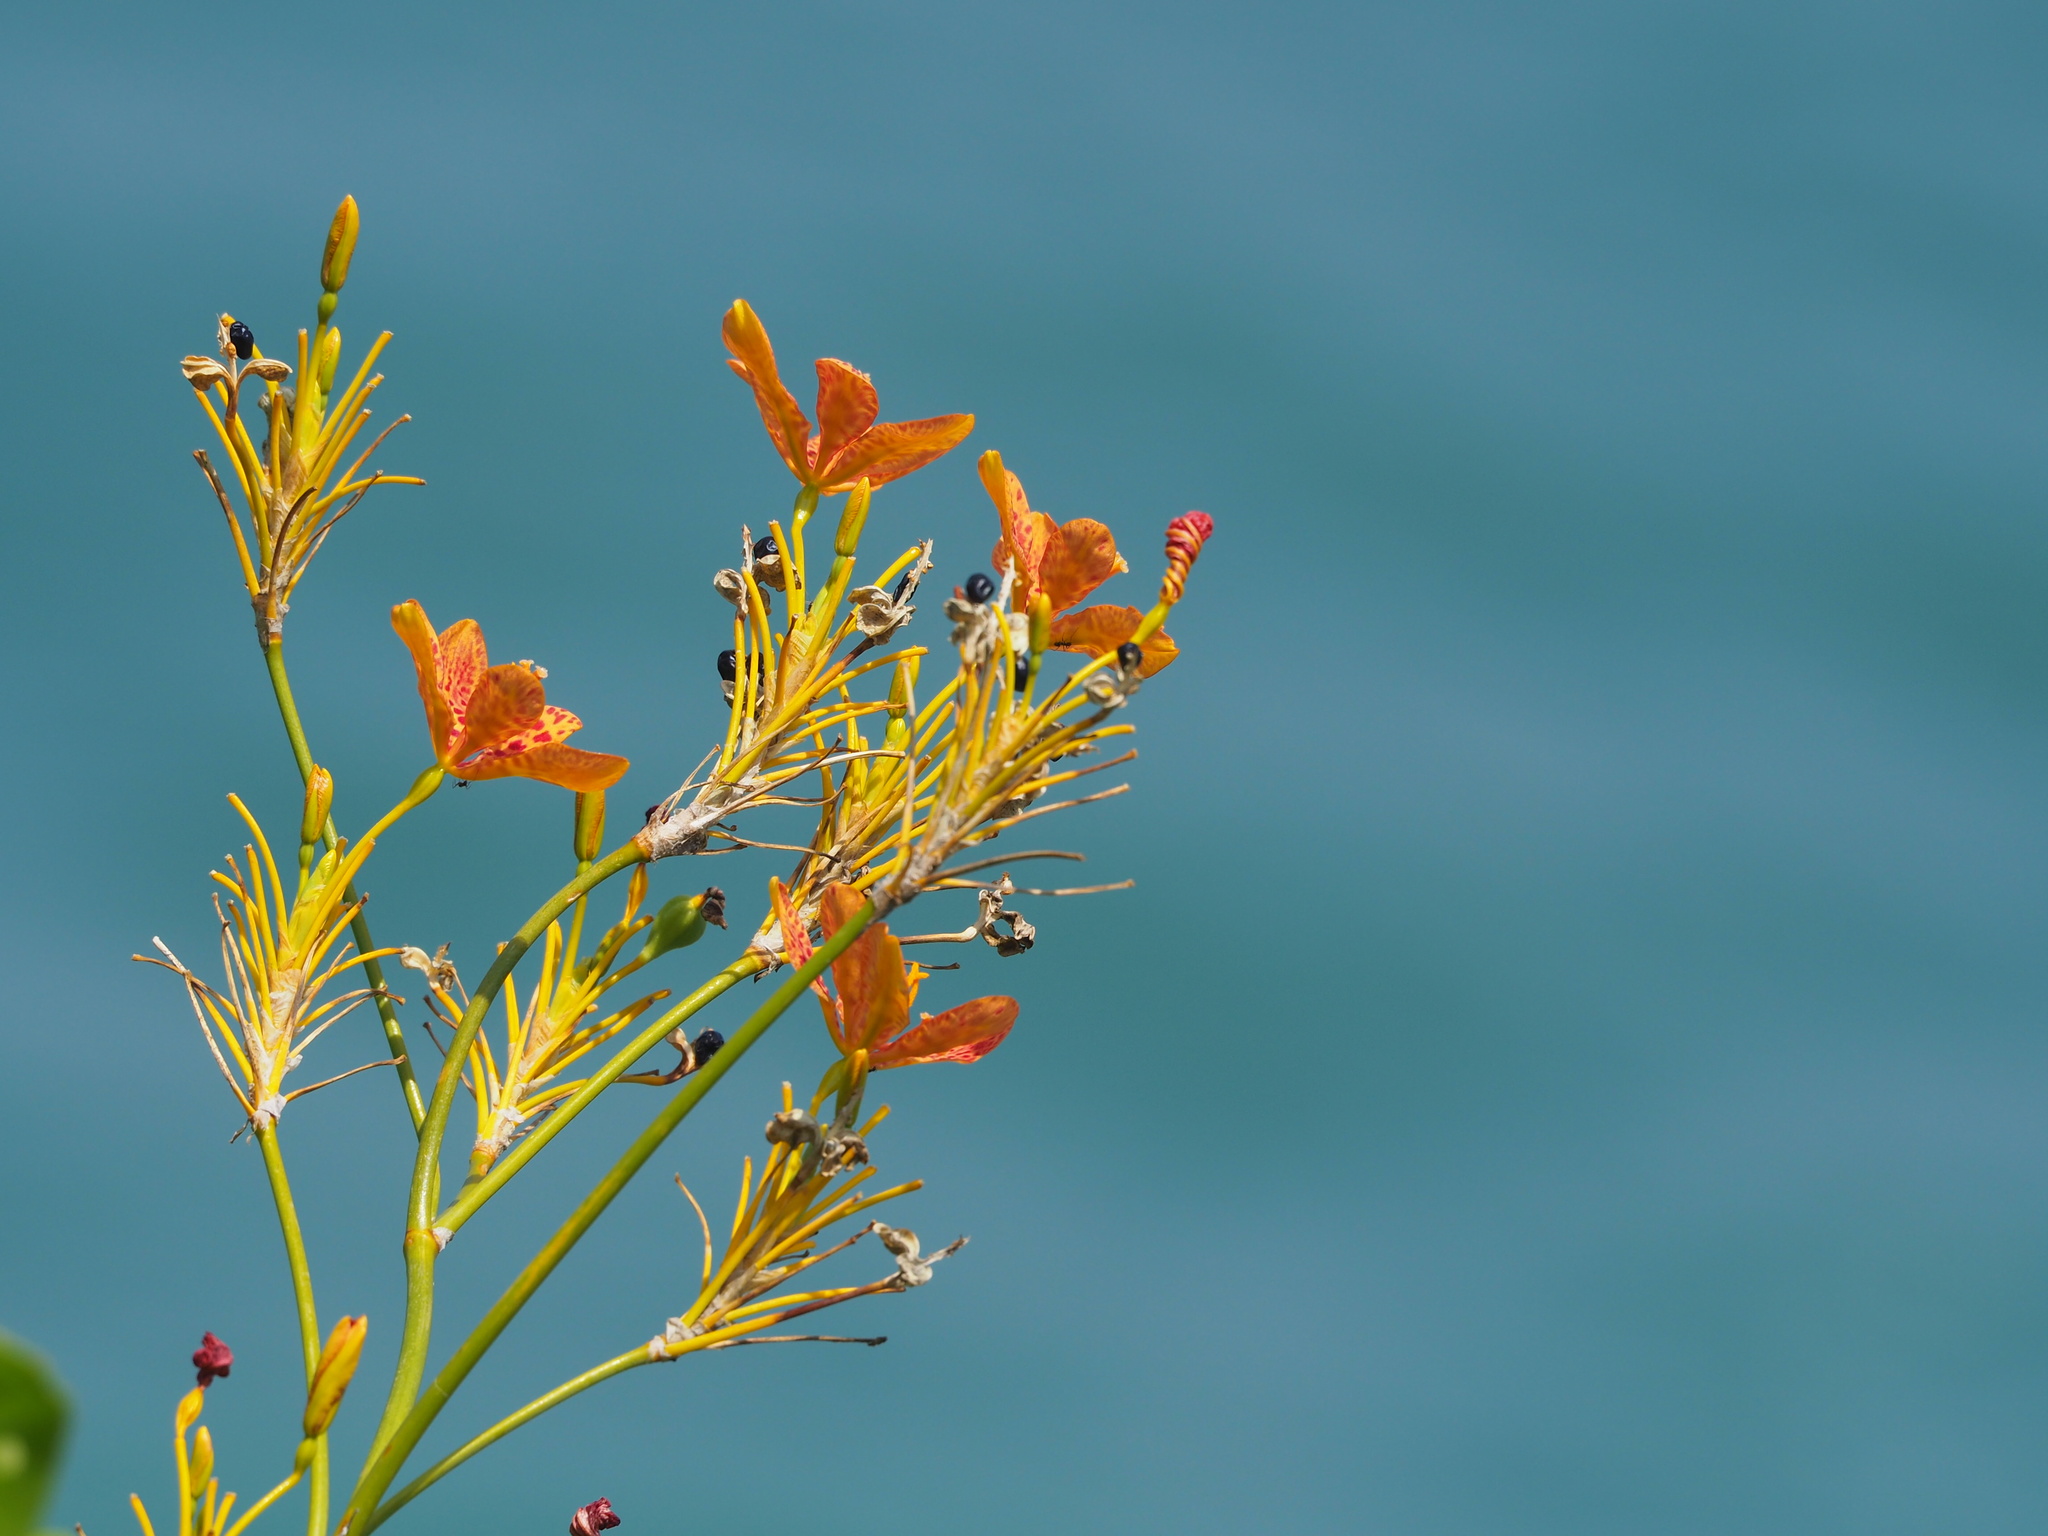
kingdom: Plantae
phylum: Tracheophyta
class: Liliopsida
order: Asparagales
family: Iridaceae
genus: Iris
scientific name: Iris domestica
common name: Belamcanda
